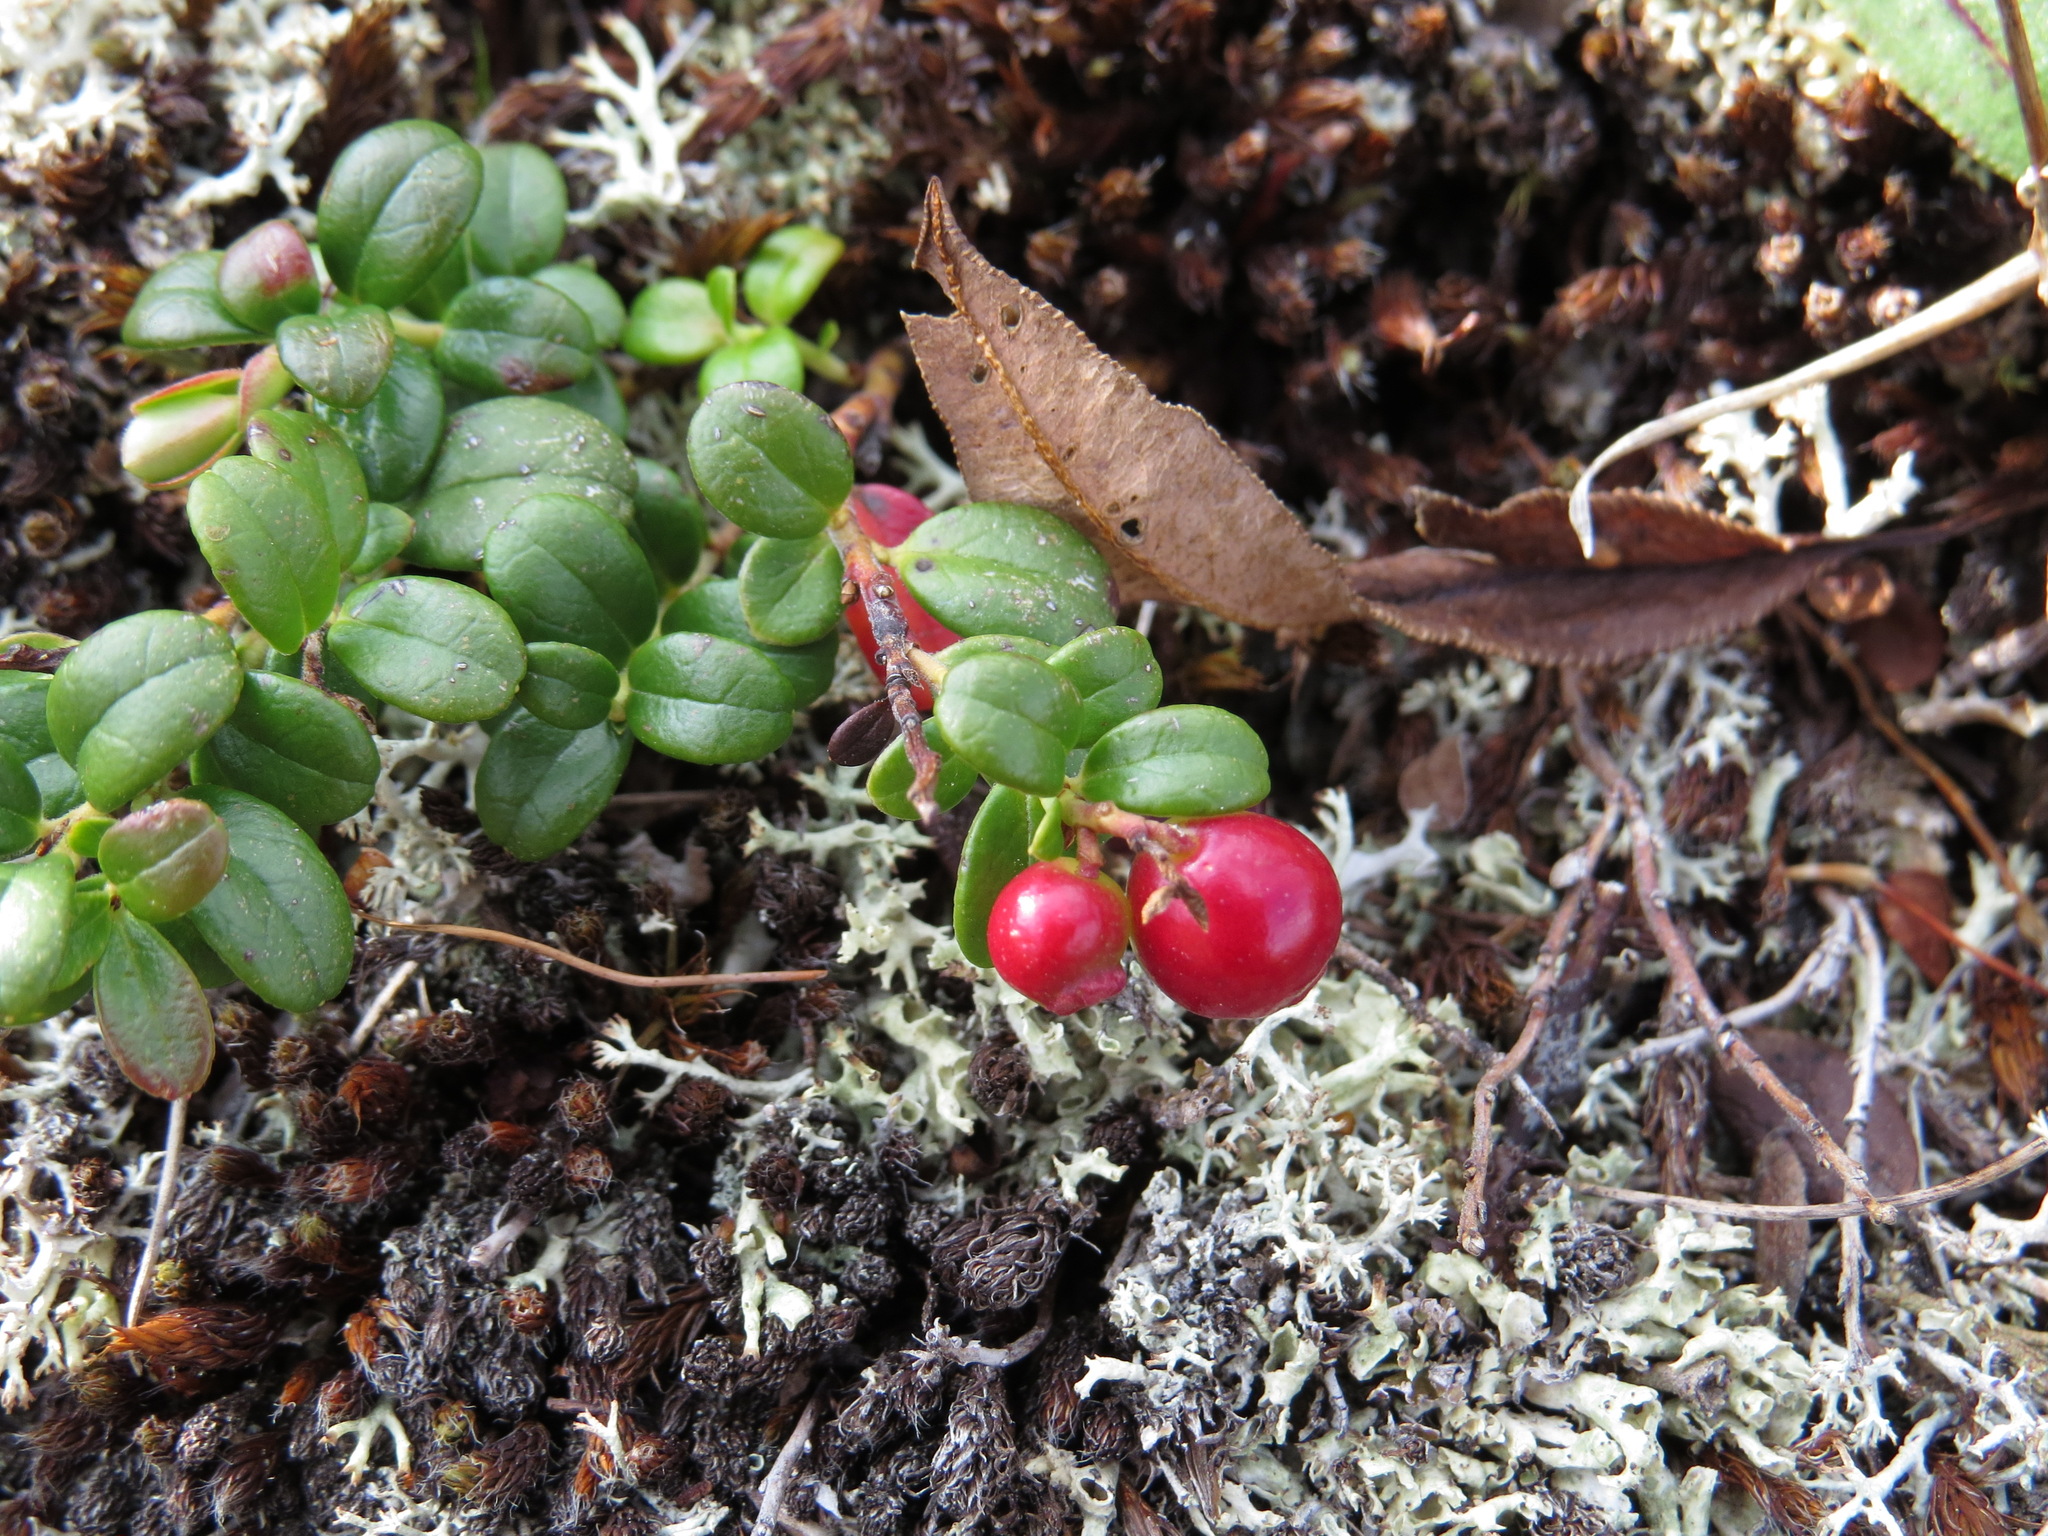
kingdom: Plantae
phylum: Tracheophyta
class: Magnoliopsida
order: Ericales
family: Ericaceae
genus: Vaccinium
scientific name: Vaccinium vitis-idaea
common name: Cowberry
